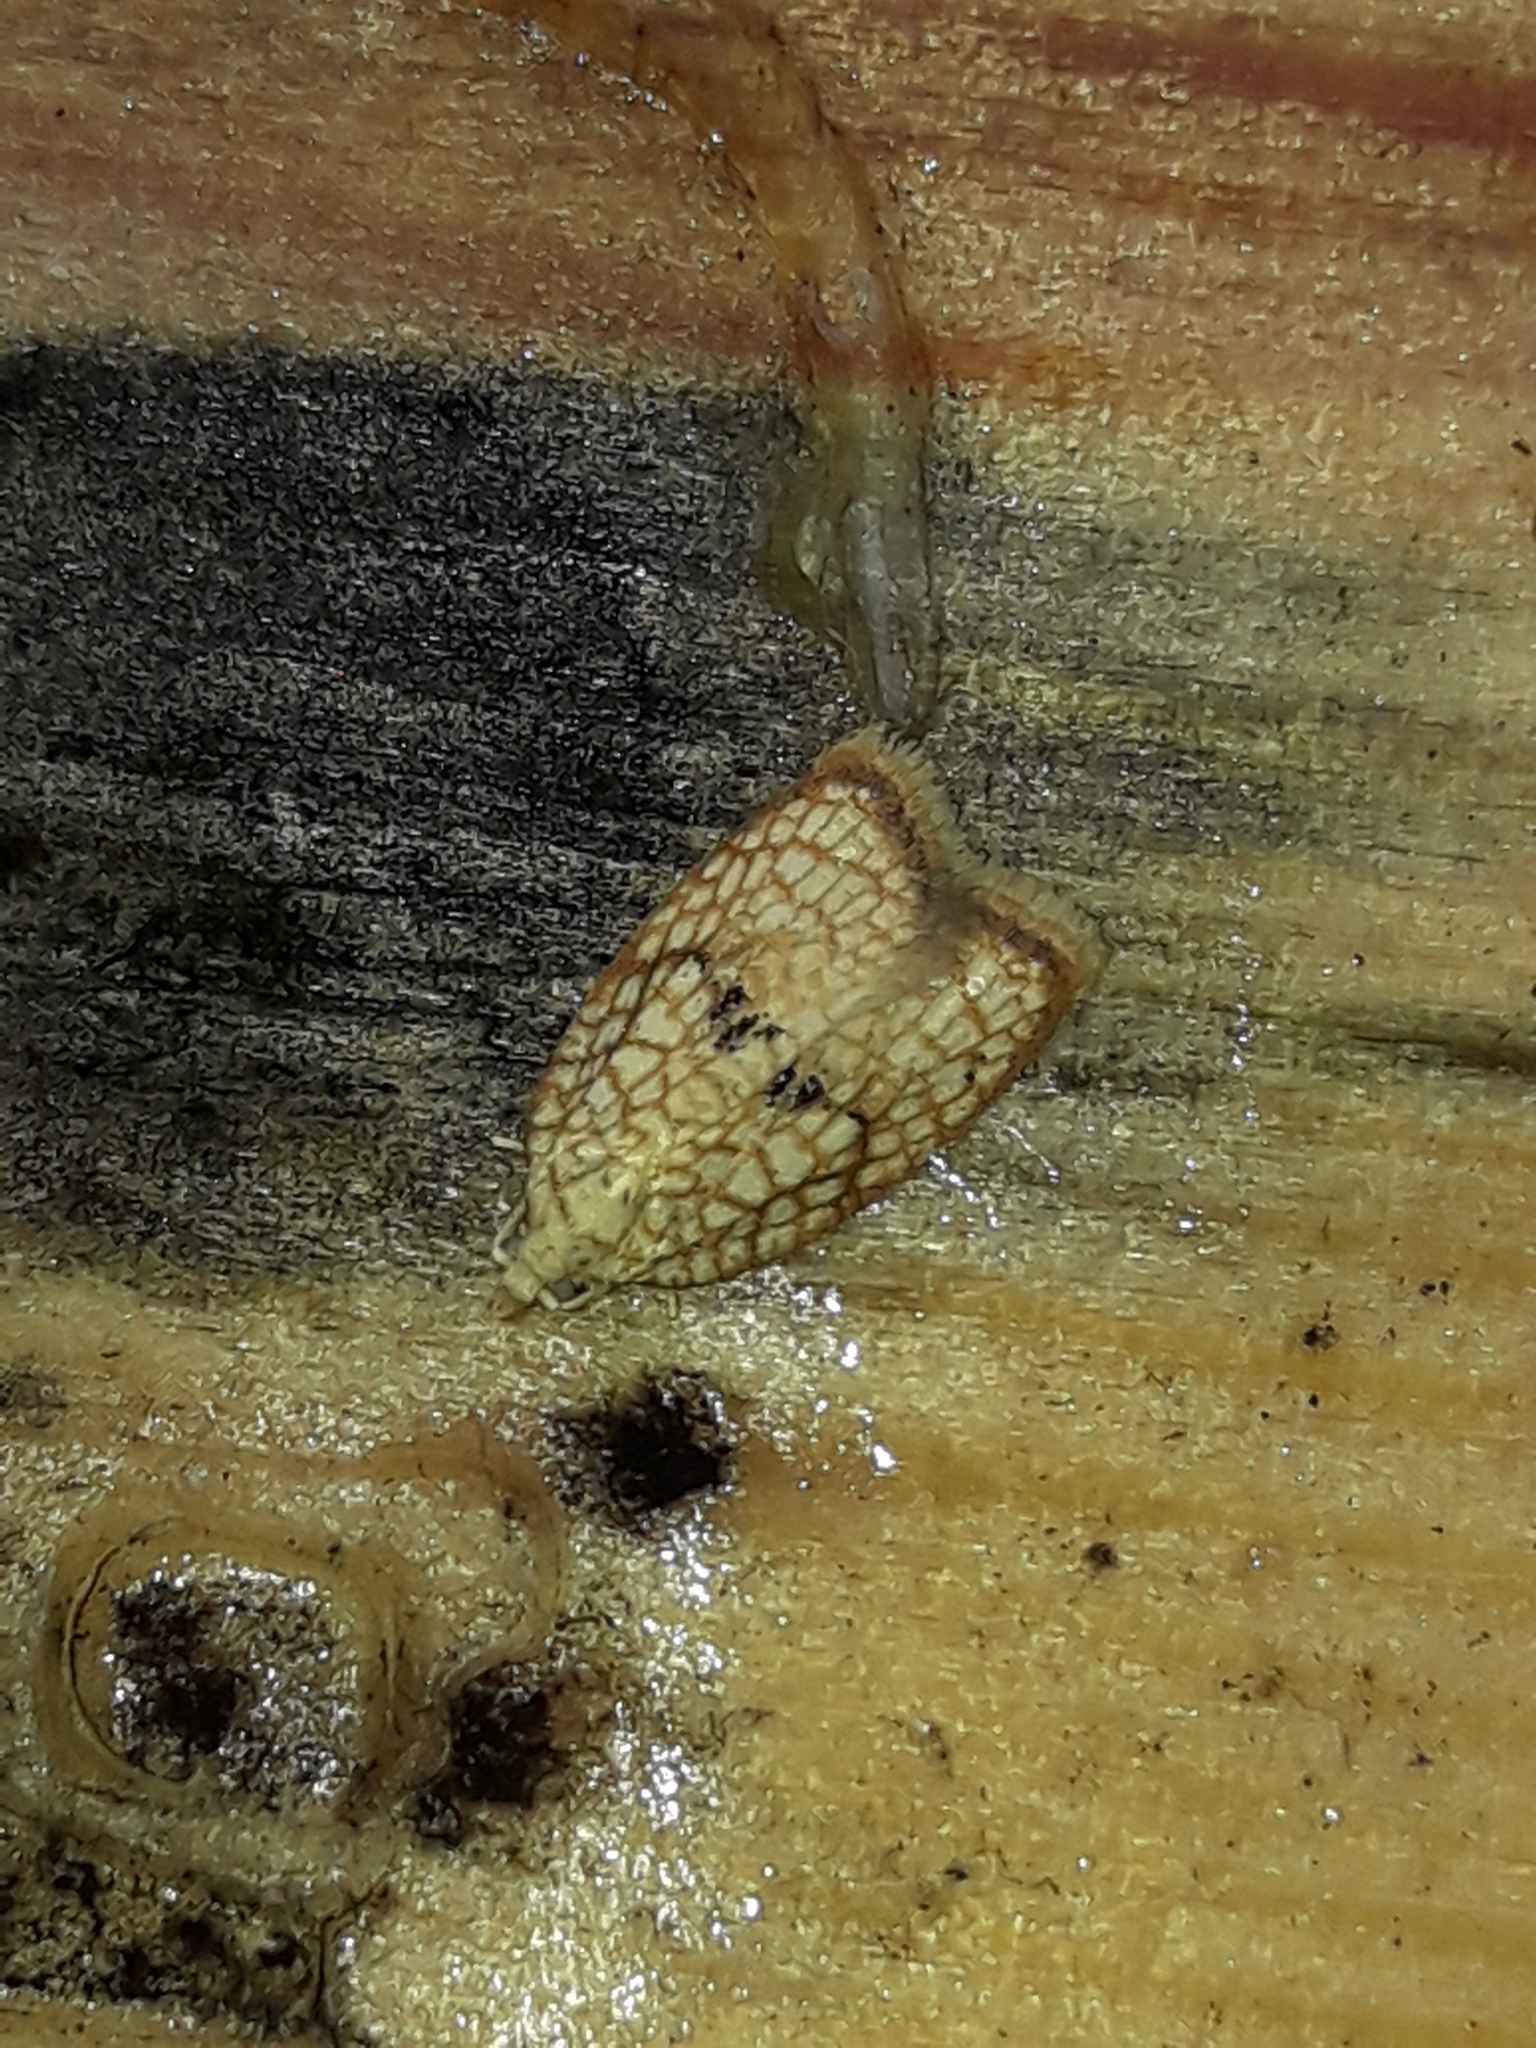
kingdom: Animalia
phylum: Arthropoda
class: Insecta
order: Lepidoptera
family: Tortricidae
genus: Acleris
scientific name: Acleris forsskaleana
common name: Maple button
